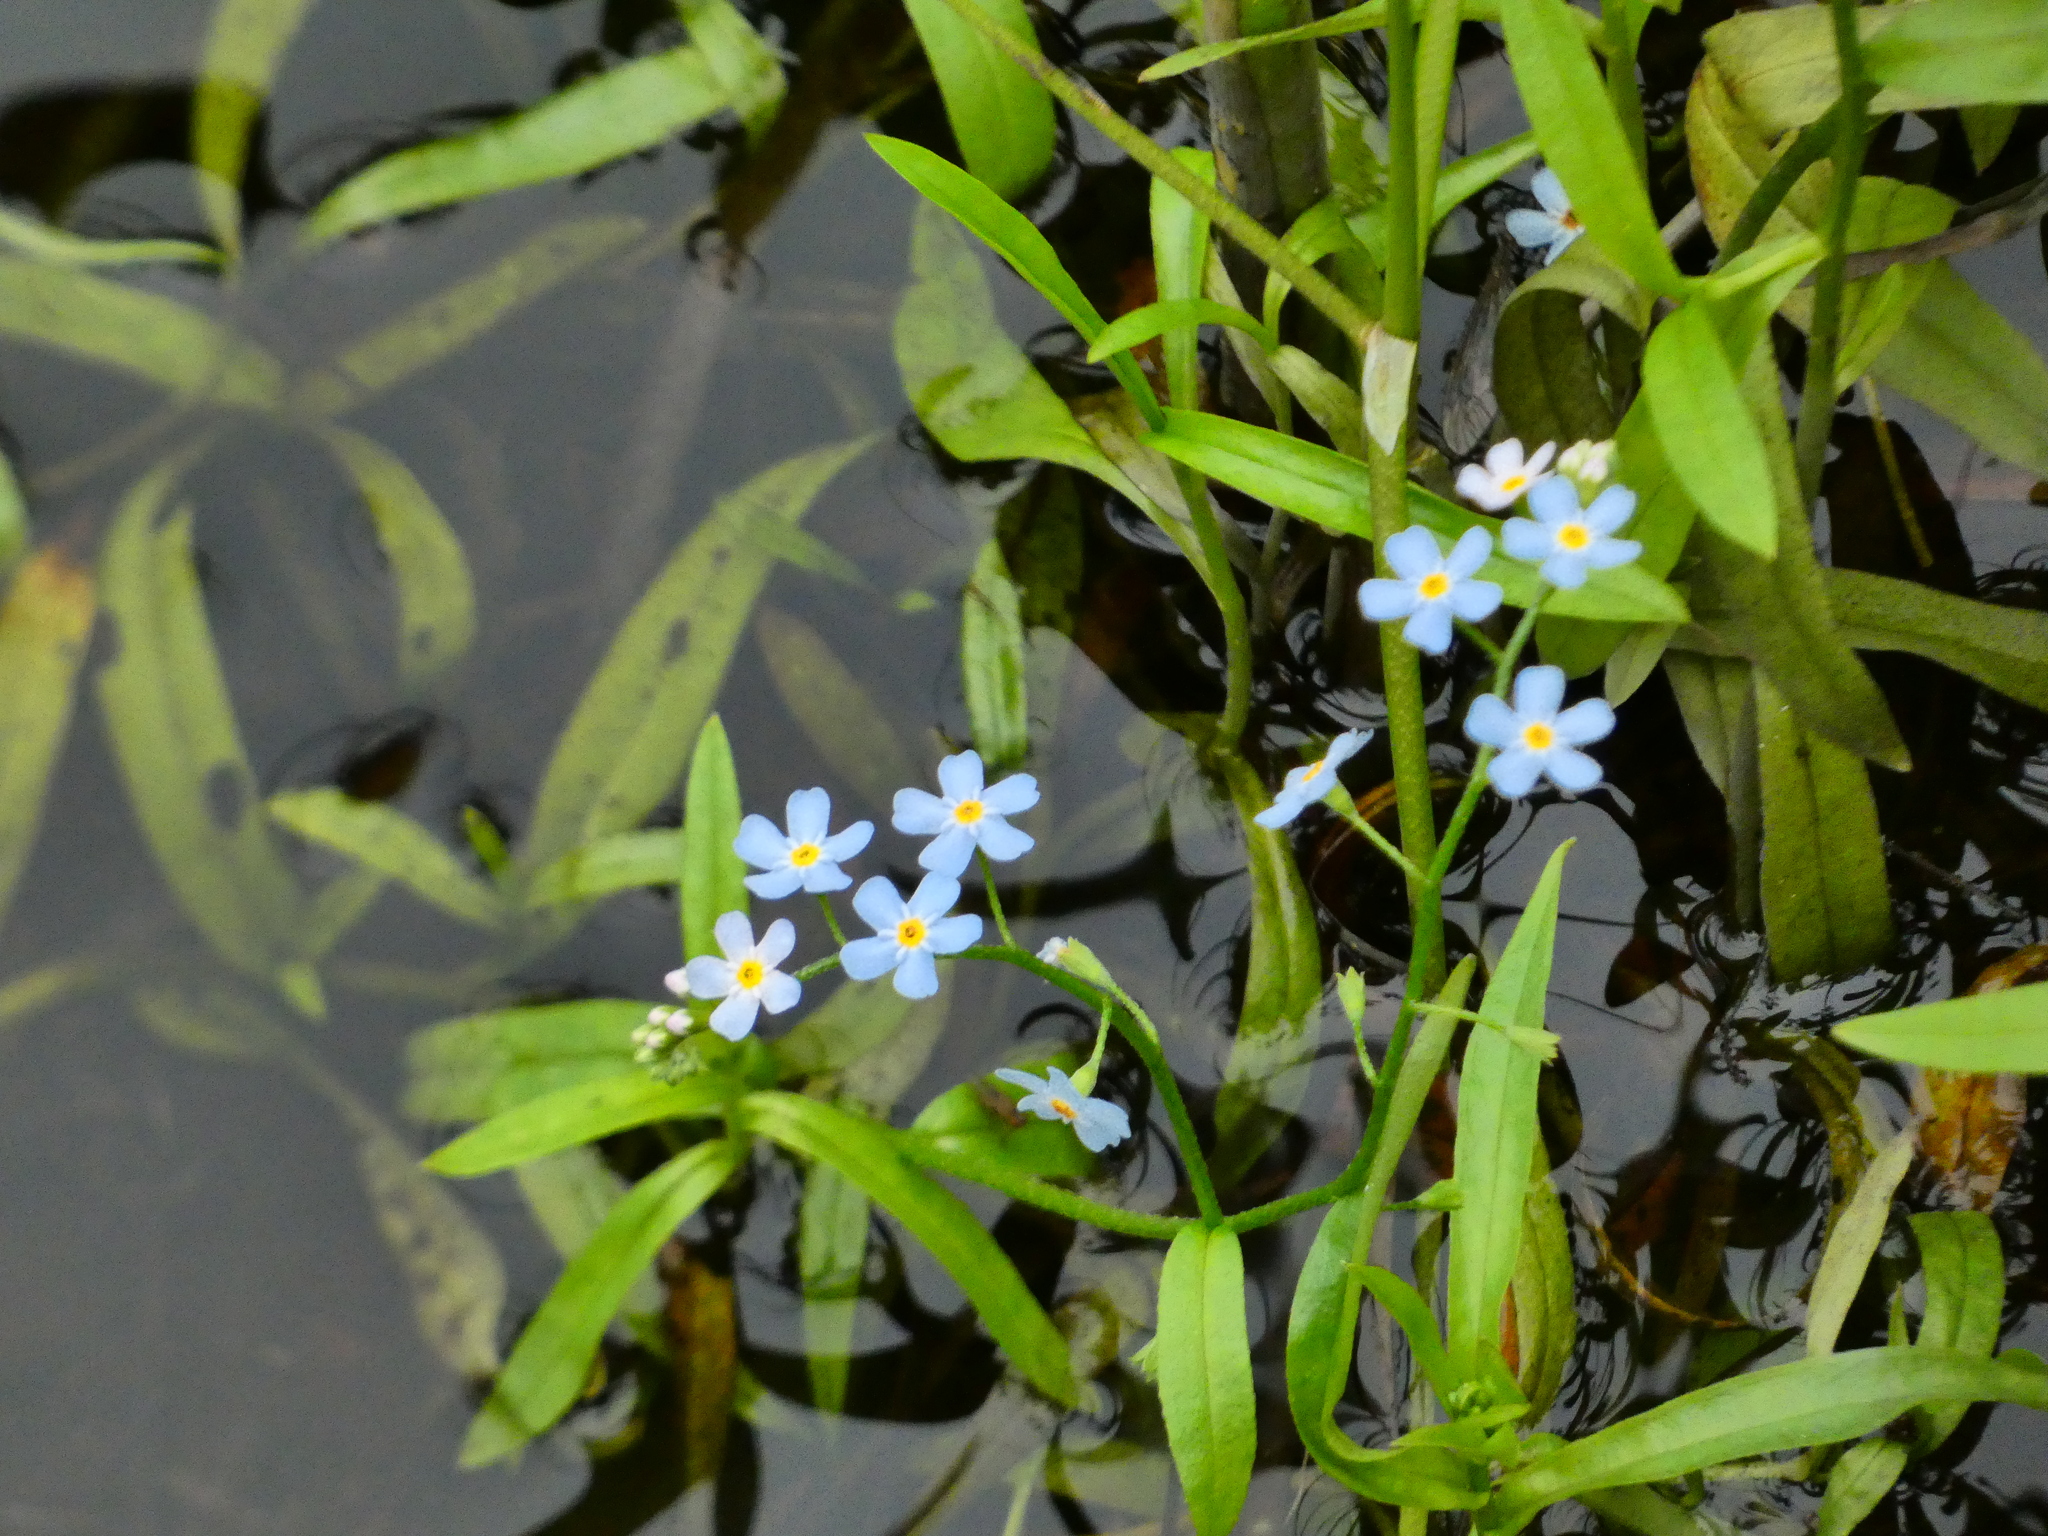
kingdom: Plantae
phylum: Tracheophyta
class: Magnoliopsida
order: Boraginales
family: Boraginaceae
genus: Myosotis
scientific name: Myosotis scorpioides
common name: Water forget-me-not
